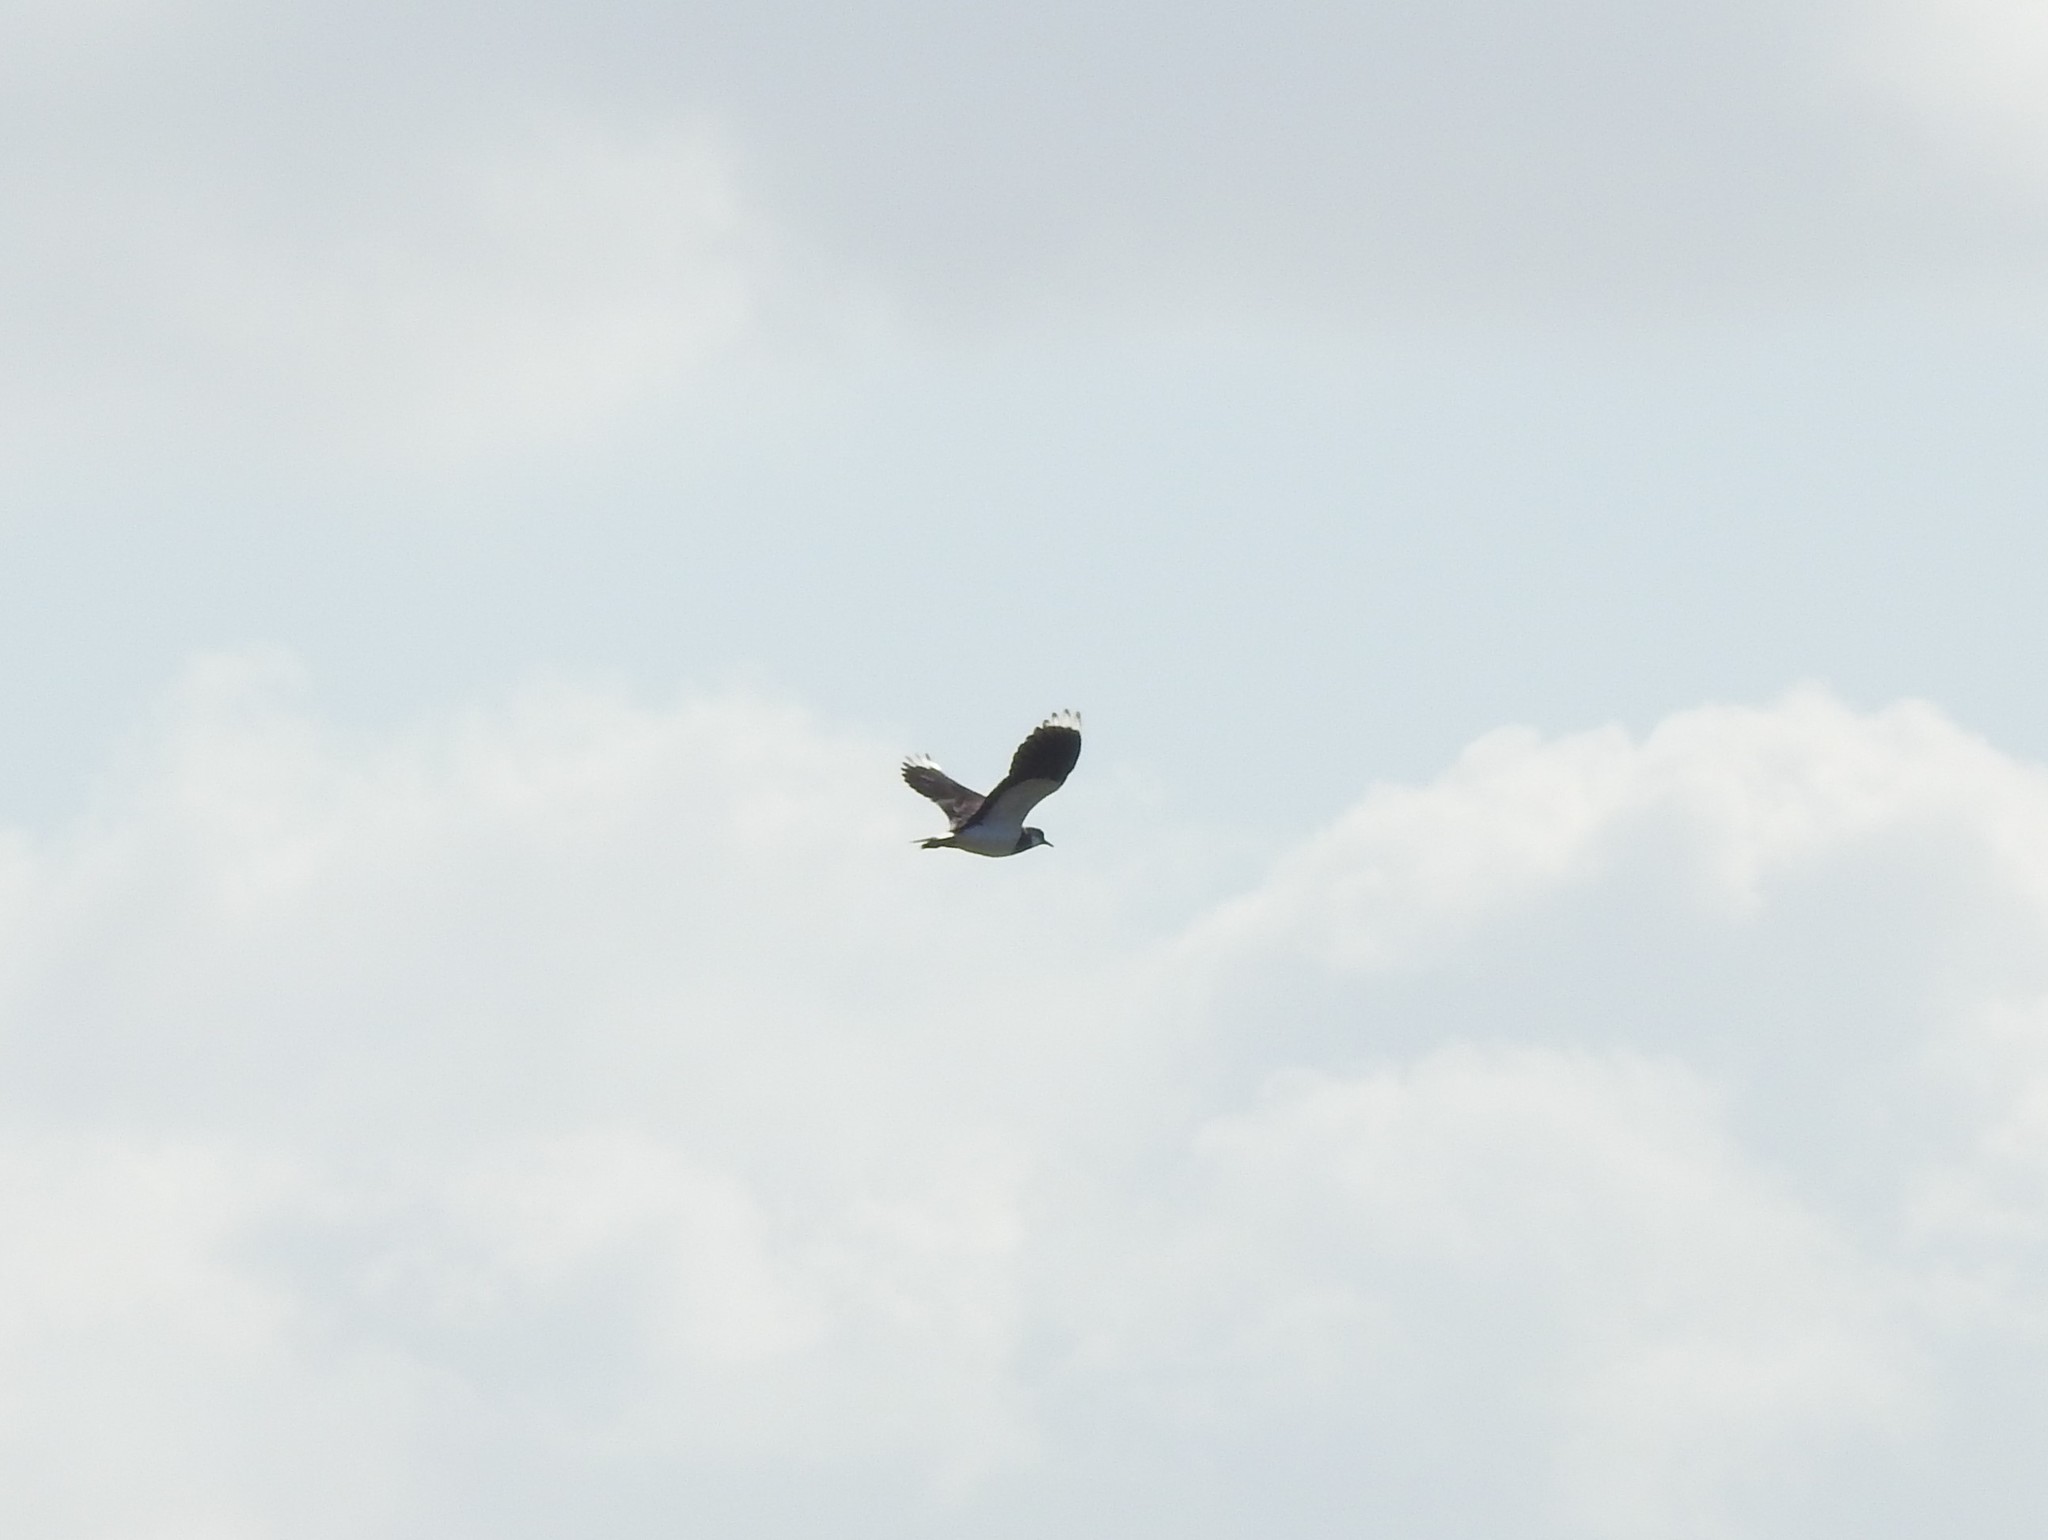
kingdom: Animalia
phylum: Chordata
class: Aves
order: Charadriiformes
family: Charadriidae
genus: Vanellus
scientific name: Vanellus vanellus
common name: Northern lapwing
